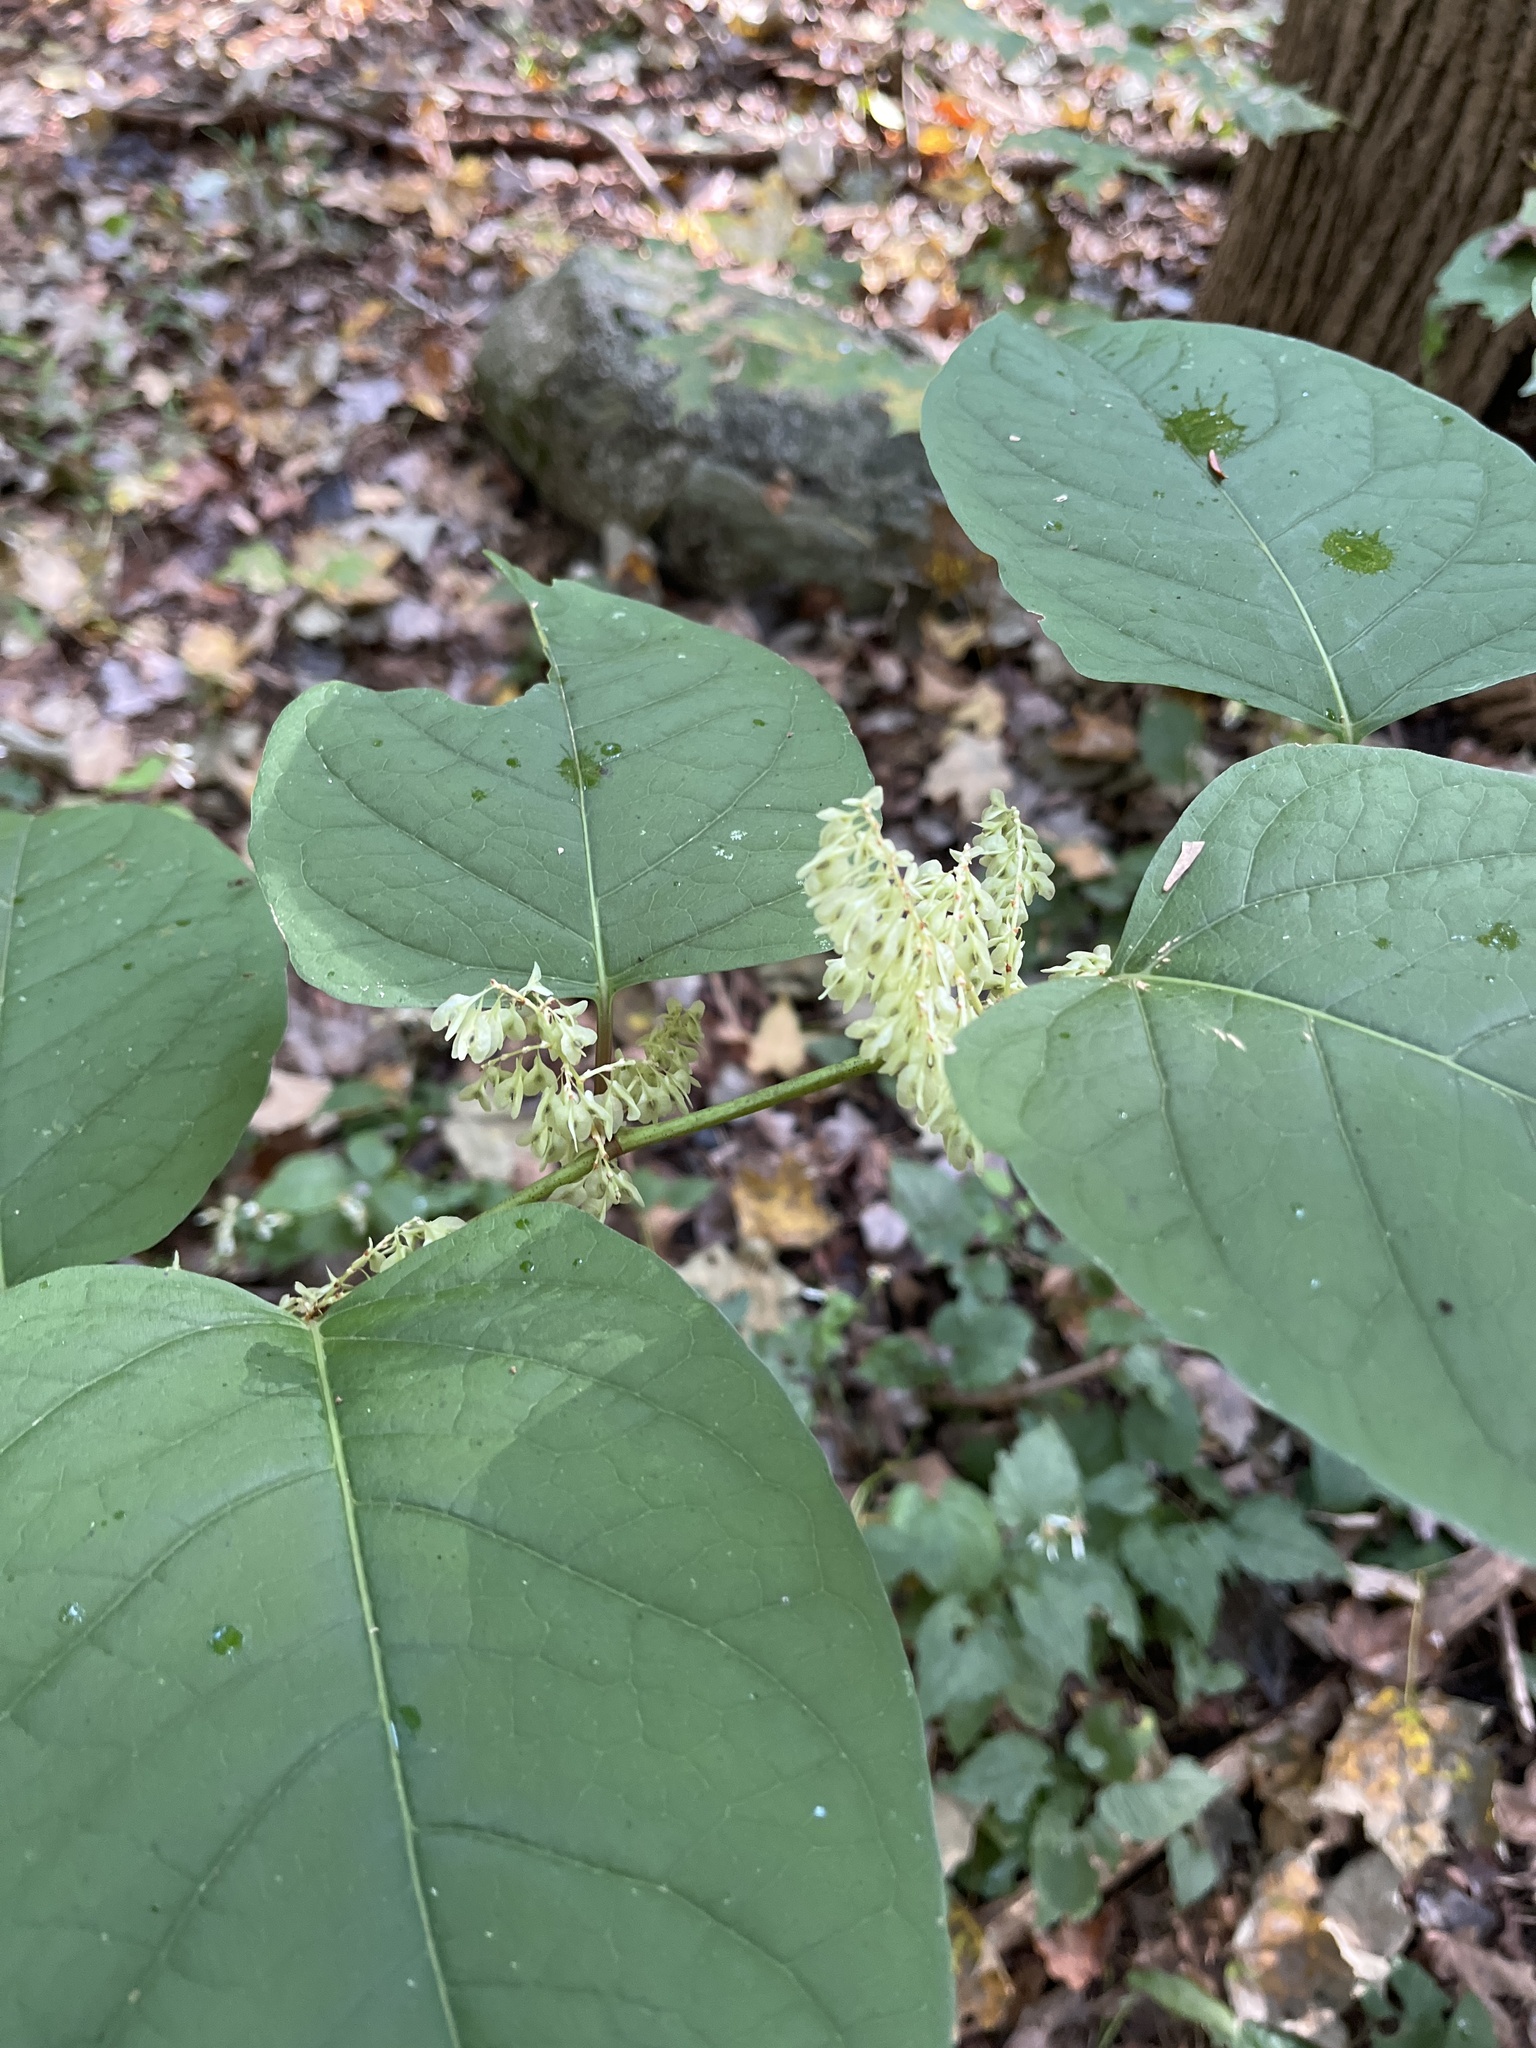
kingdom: Plantae
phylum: Tracheophyta
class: Magnoliopsida
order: Caryophyllales
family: Polygonaceae
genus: Reynoutria
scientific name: Reynoutria japonica
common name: Japanese knotweed
